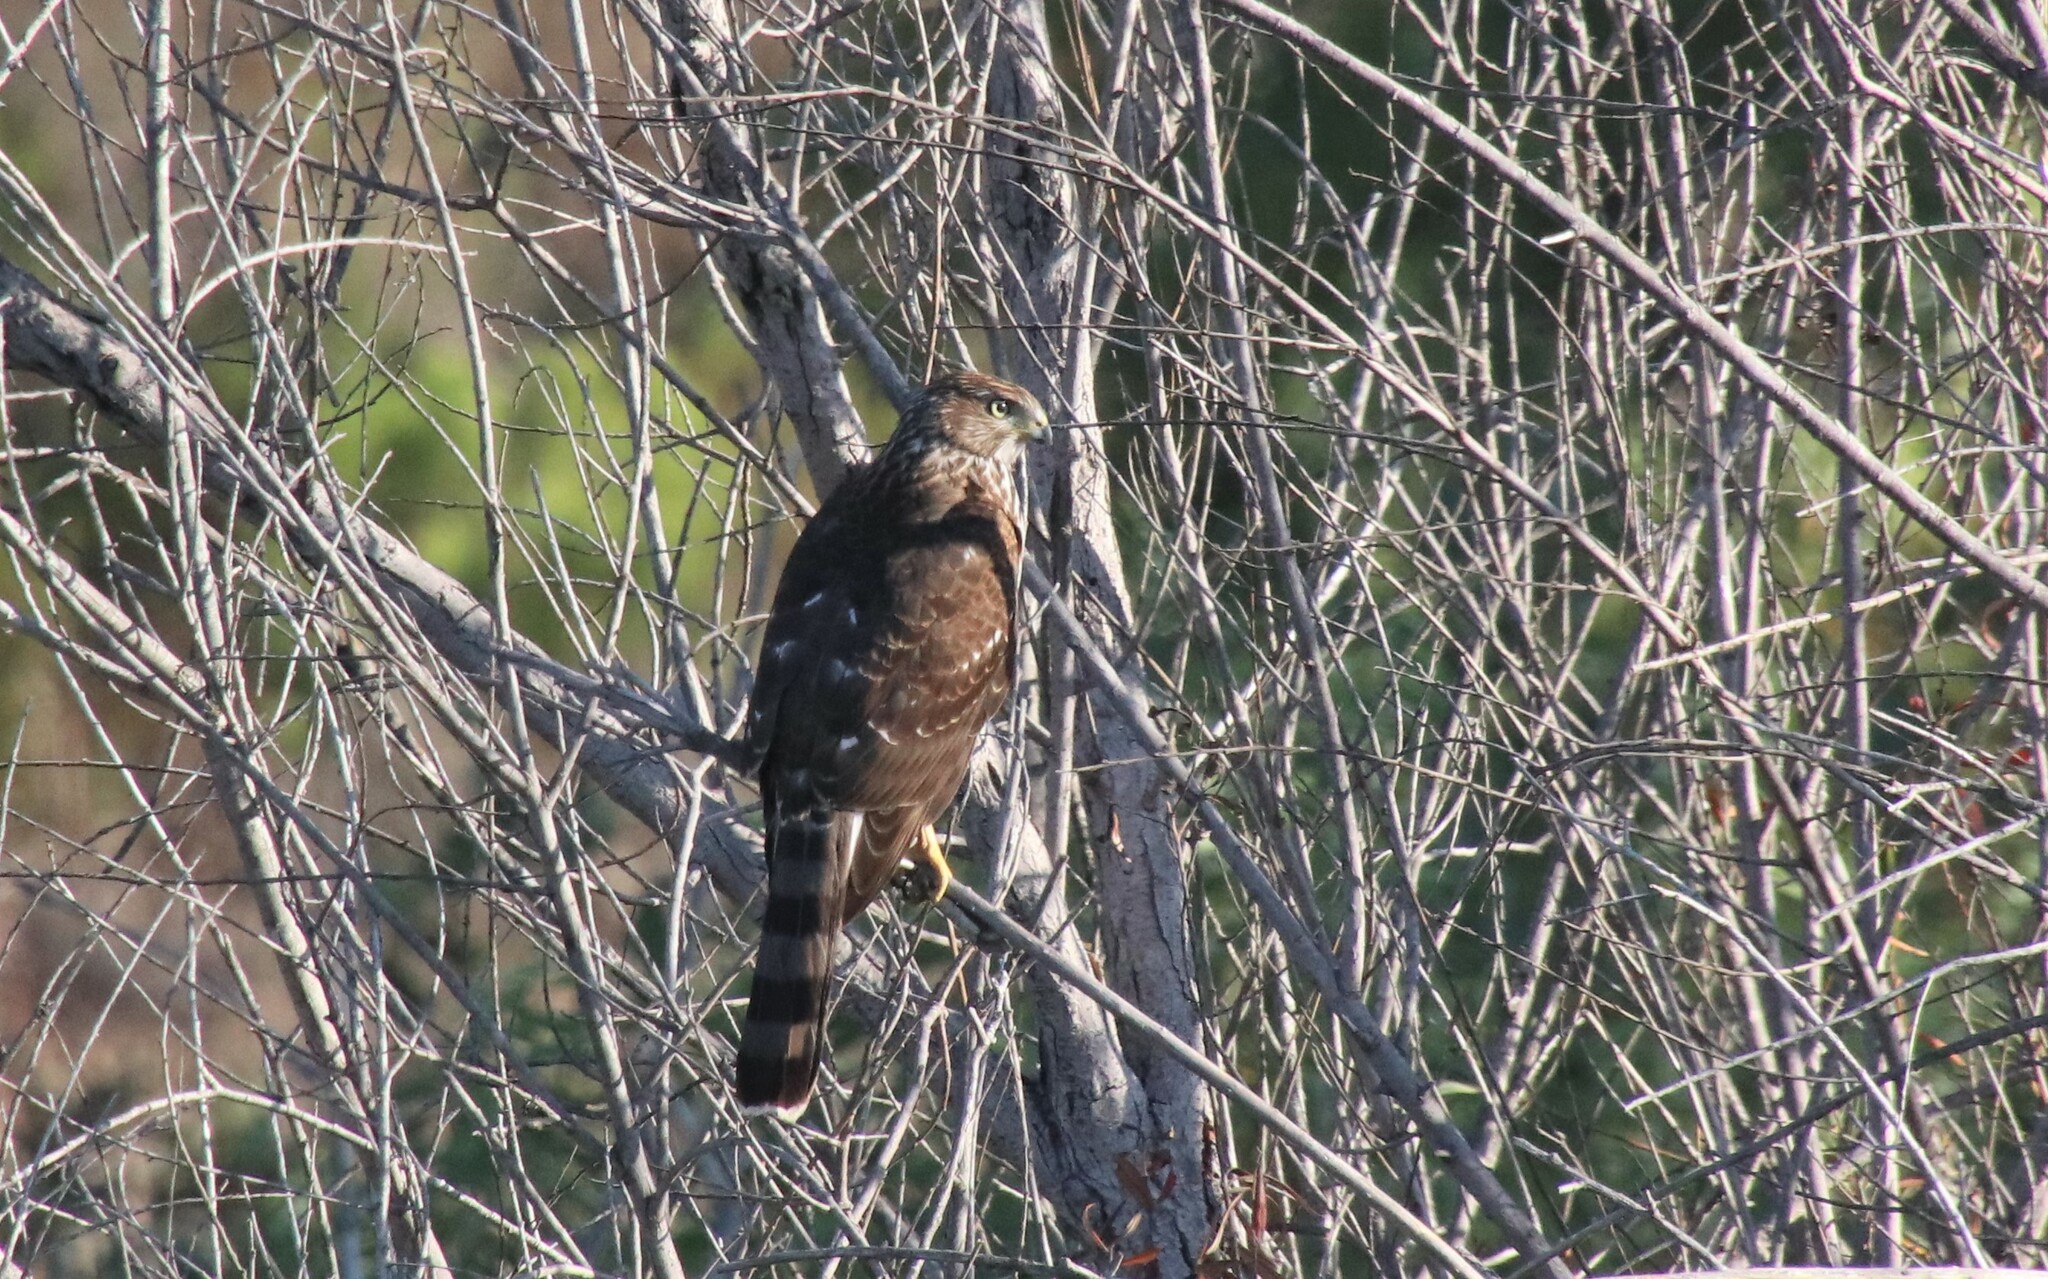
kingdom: Animalia
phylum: Chordata
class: Aves
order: Accipitriformes
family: Accipitridae
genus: Accipiter
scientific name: Accipiter cooperii
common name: Cooper's hawk
